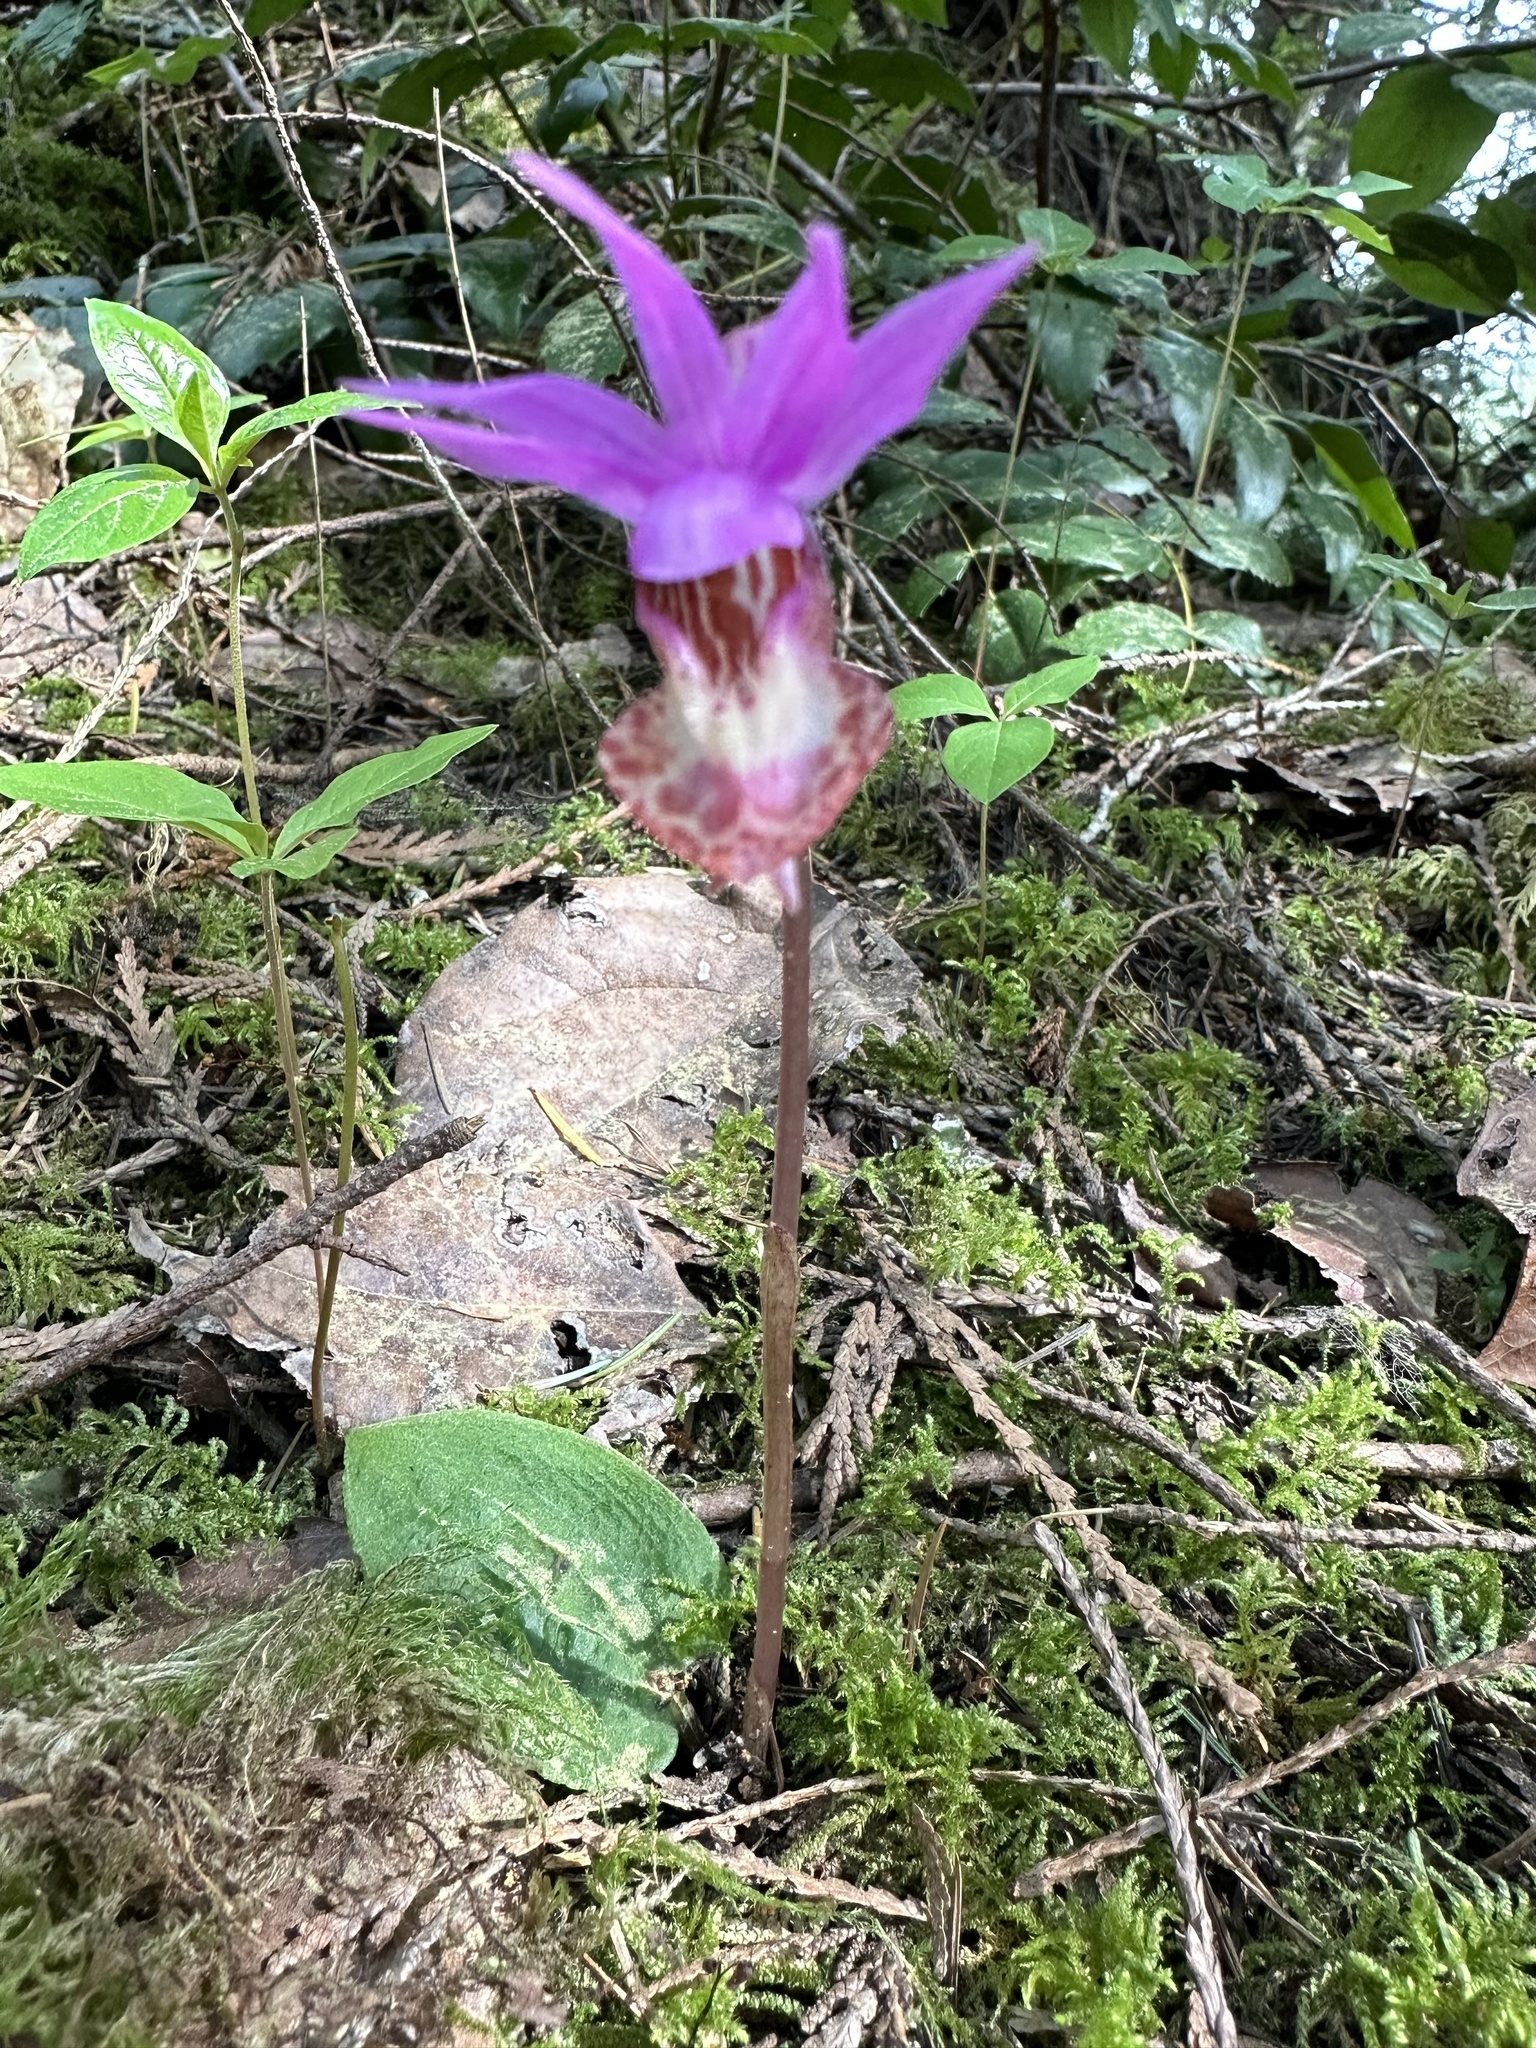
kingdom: Plantae
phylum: Tracheophyta
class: Liliopsida
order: Asparagales
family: Orchidaceae
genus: Calypso
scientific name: Calypso bulbosa
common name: Calypso
